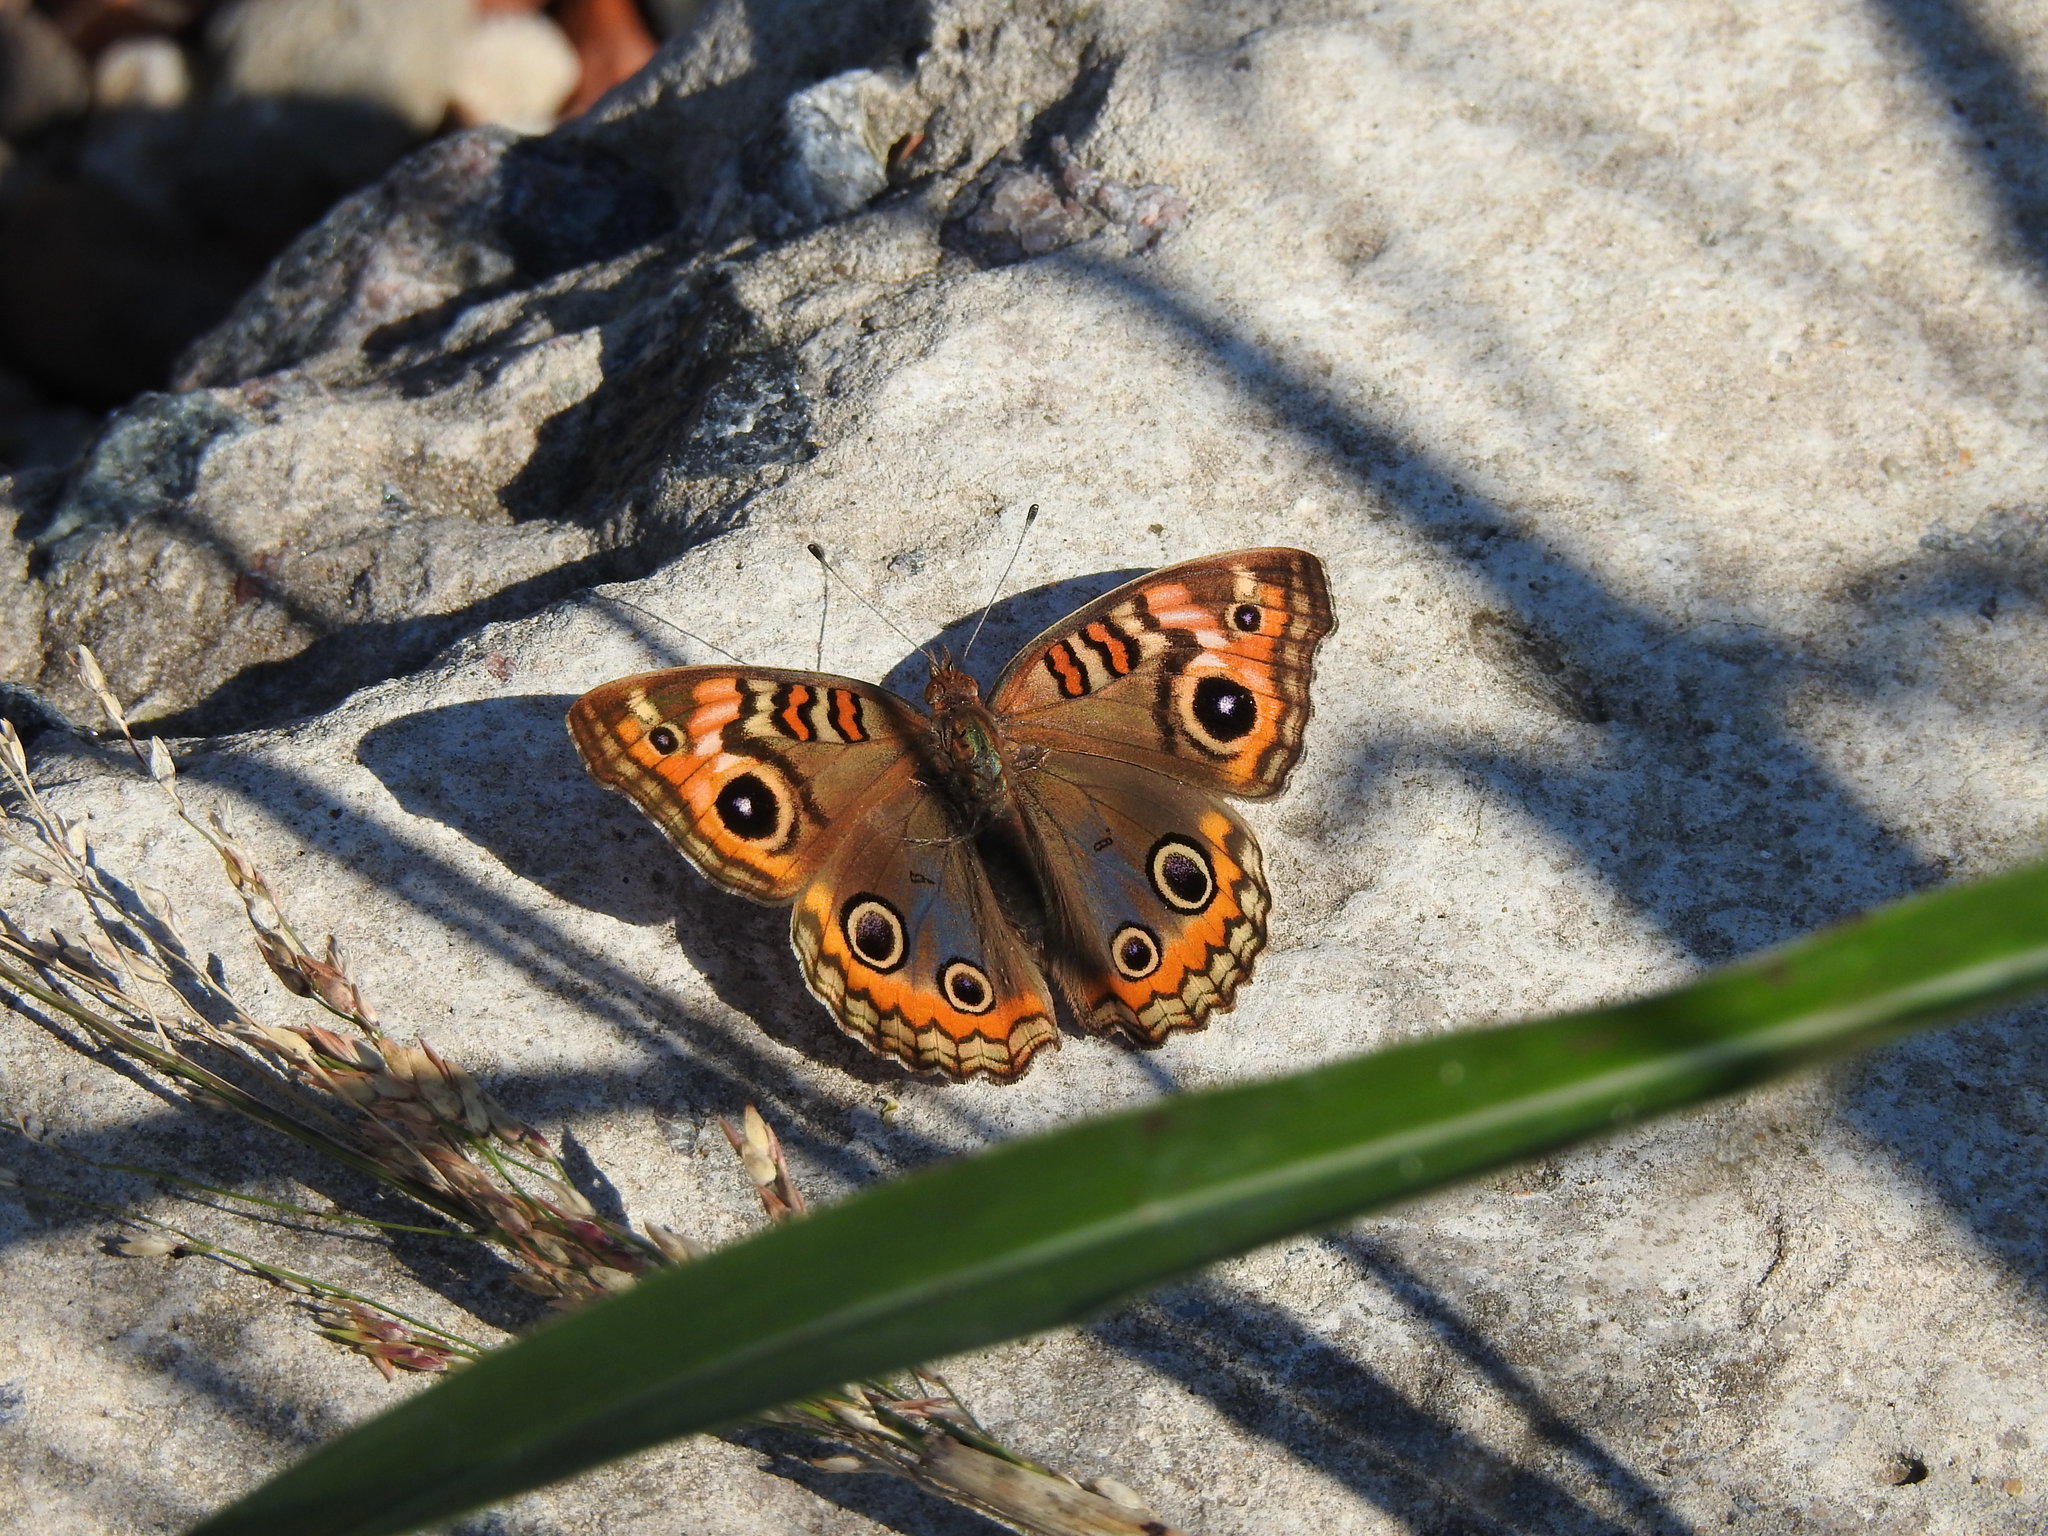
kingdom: Animalia
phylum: Arthropoda
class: Insecta
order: Lepidoptera
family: Nymphalidae
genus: Junonia
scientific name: Junonia lavinia
